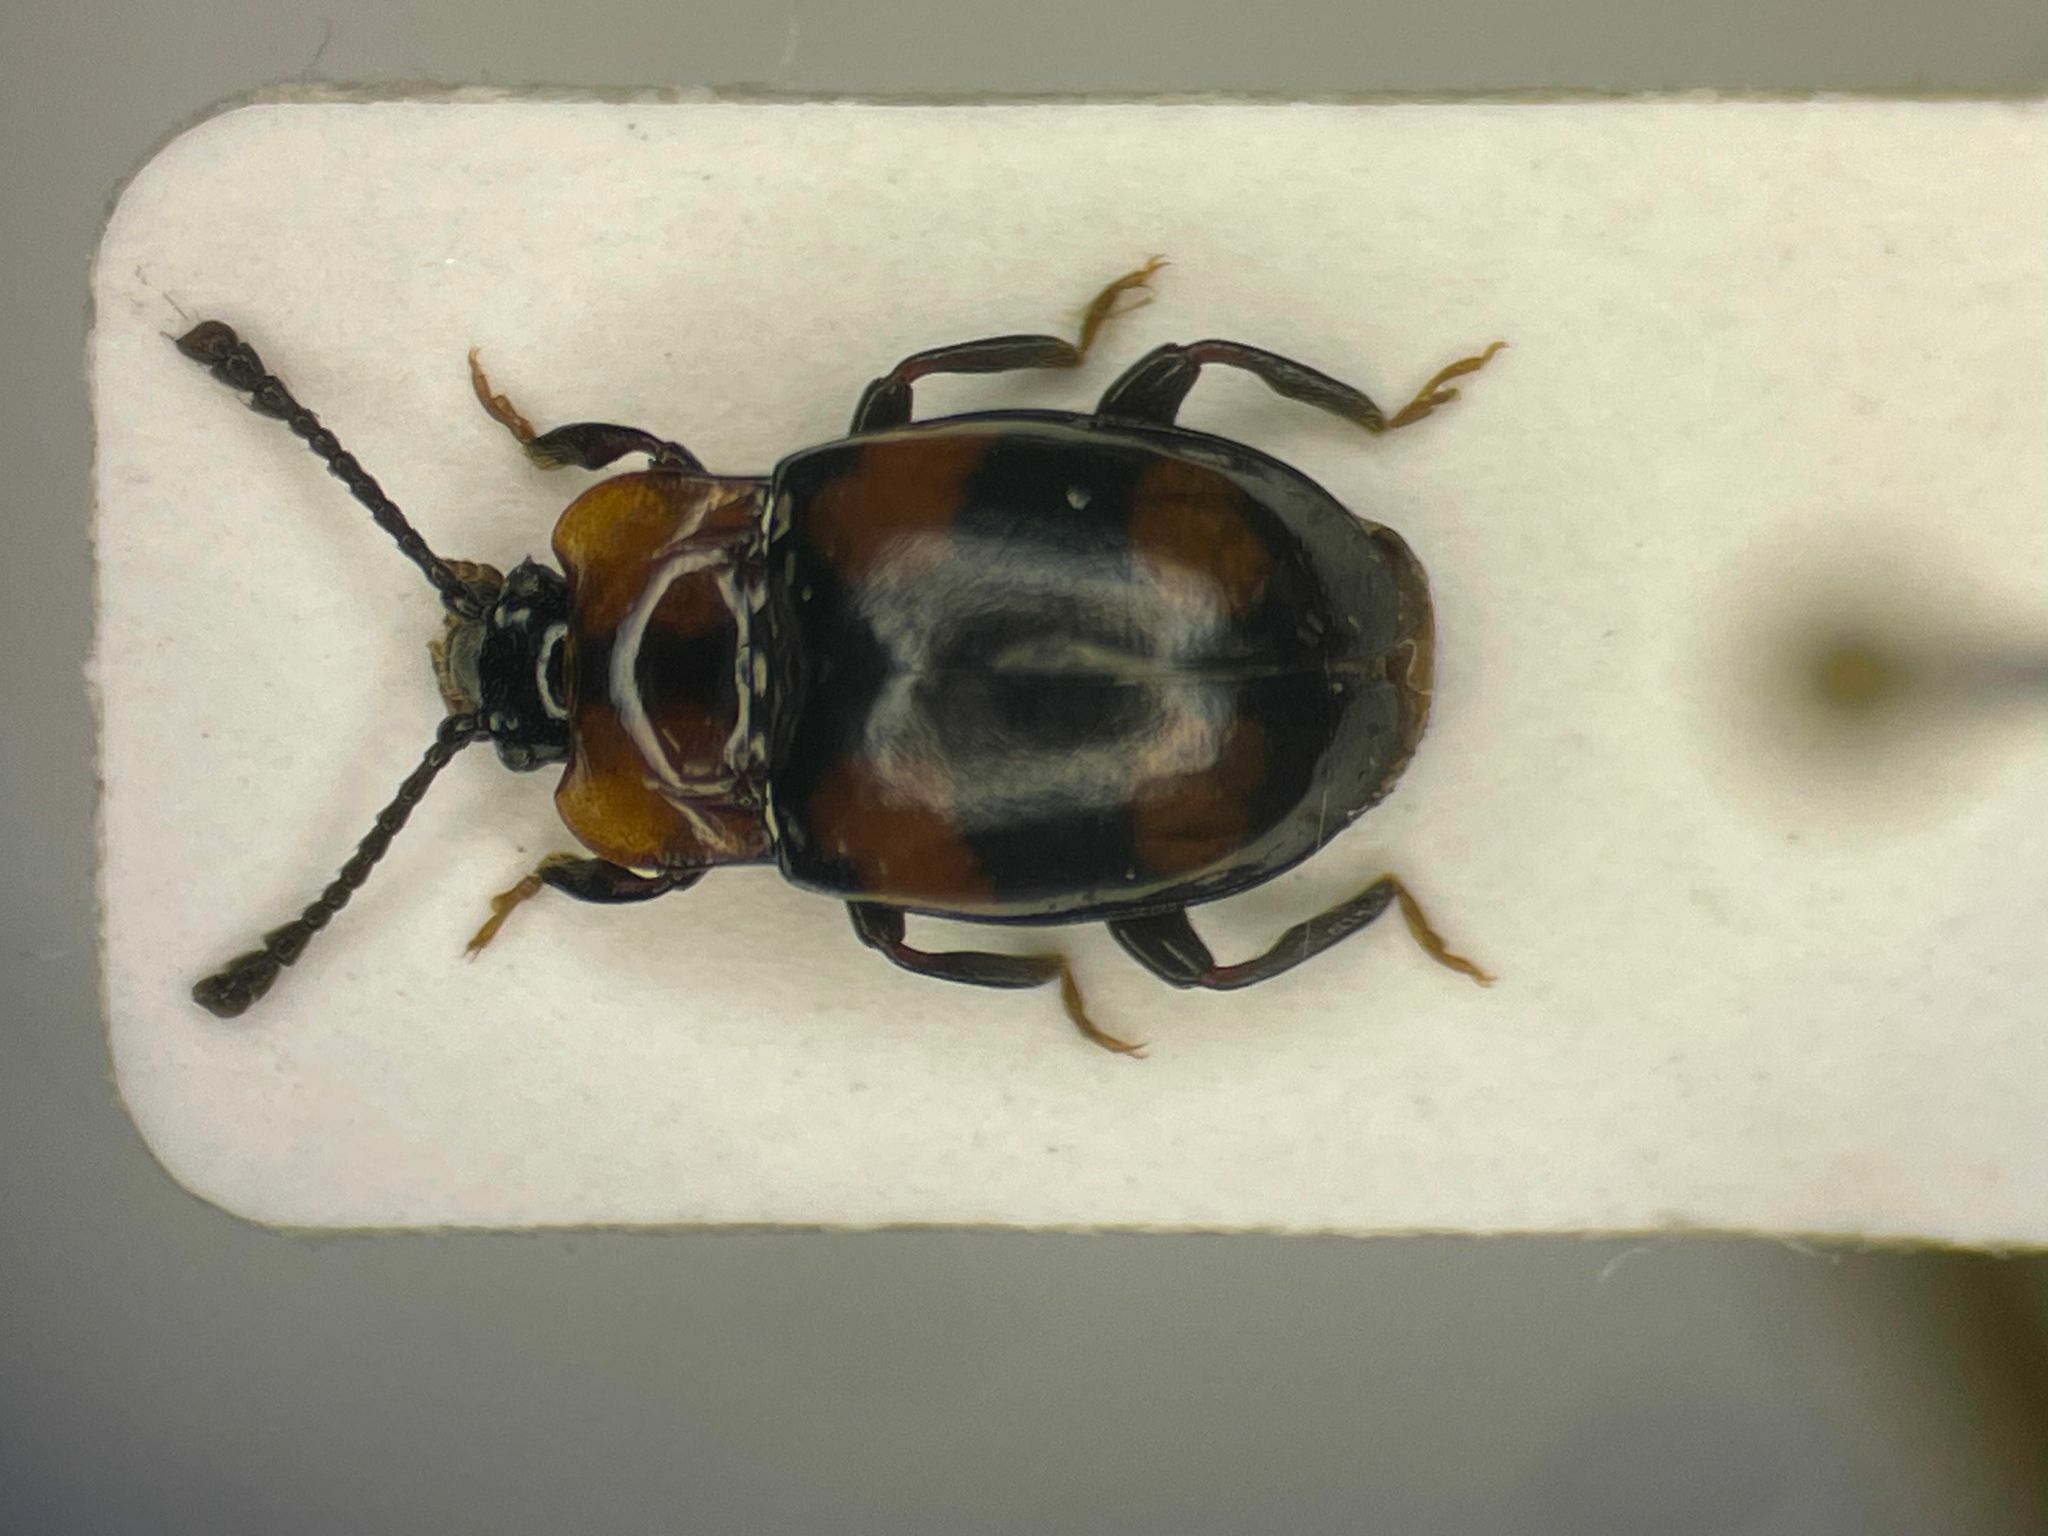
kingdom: Animalia
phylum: Arthropoda
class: Insecta
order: Coleoptera
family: Endomychidae
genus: Mycetina
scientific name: Mycetina perpulchra
